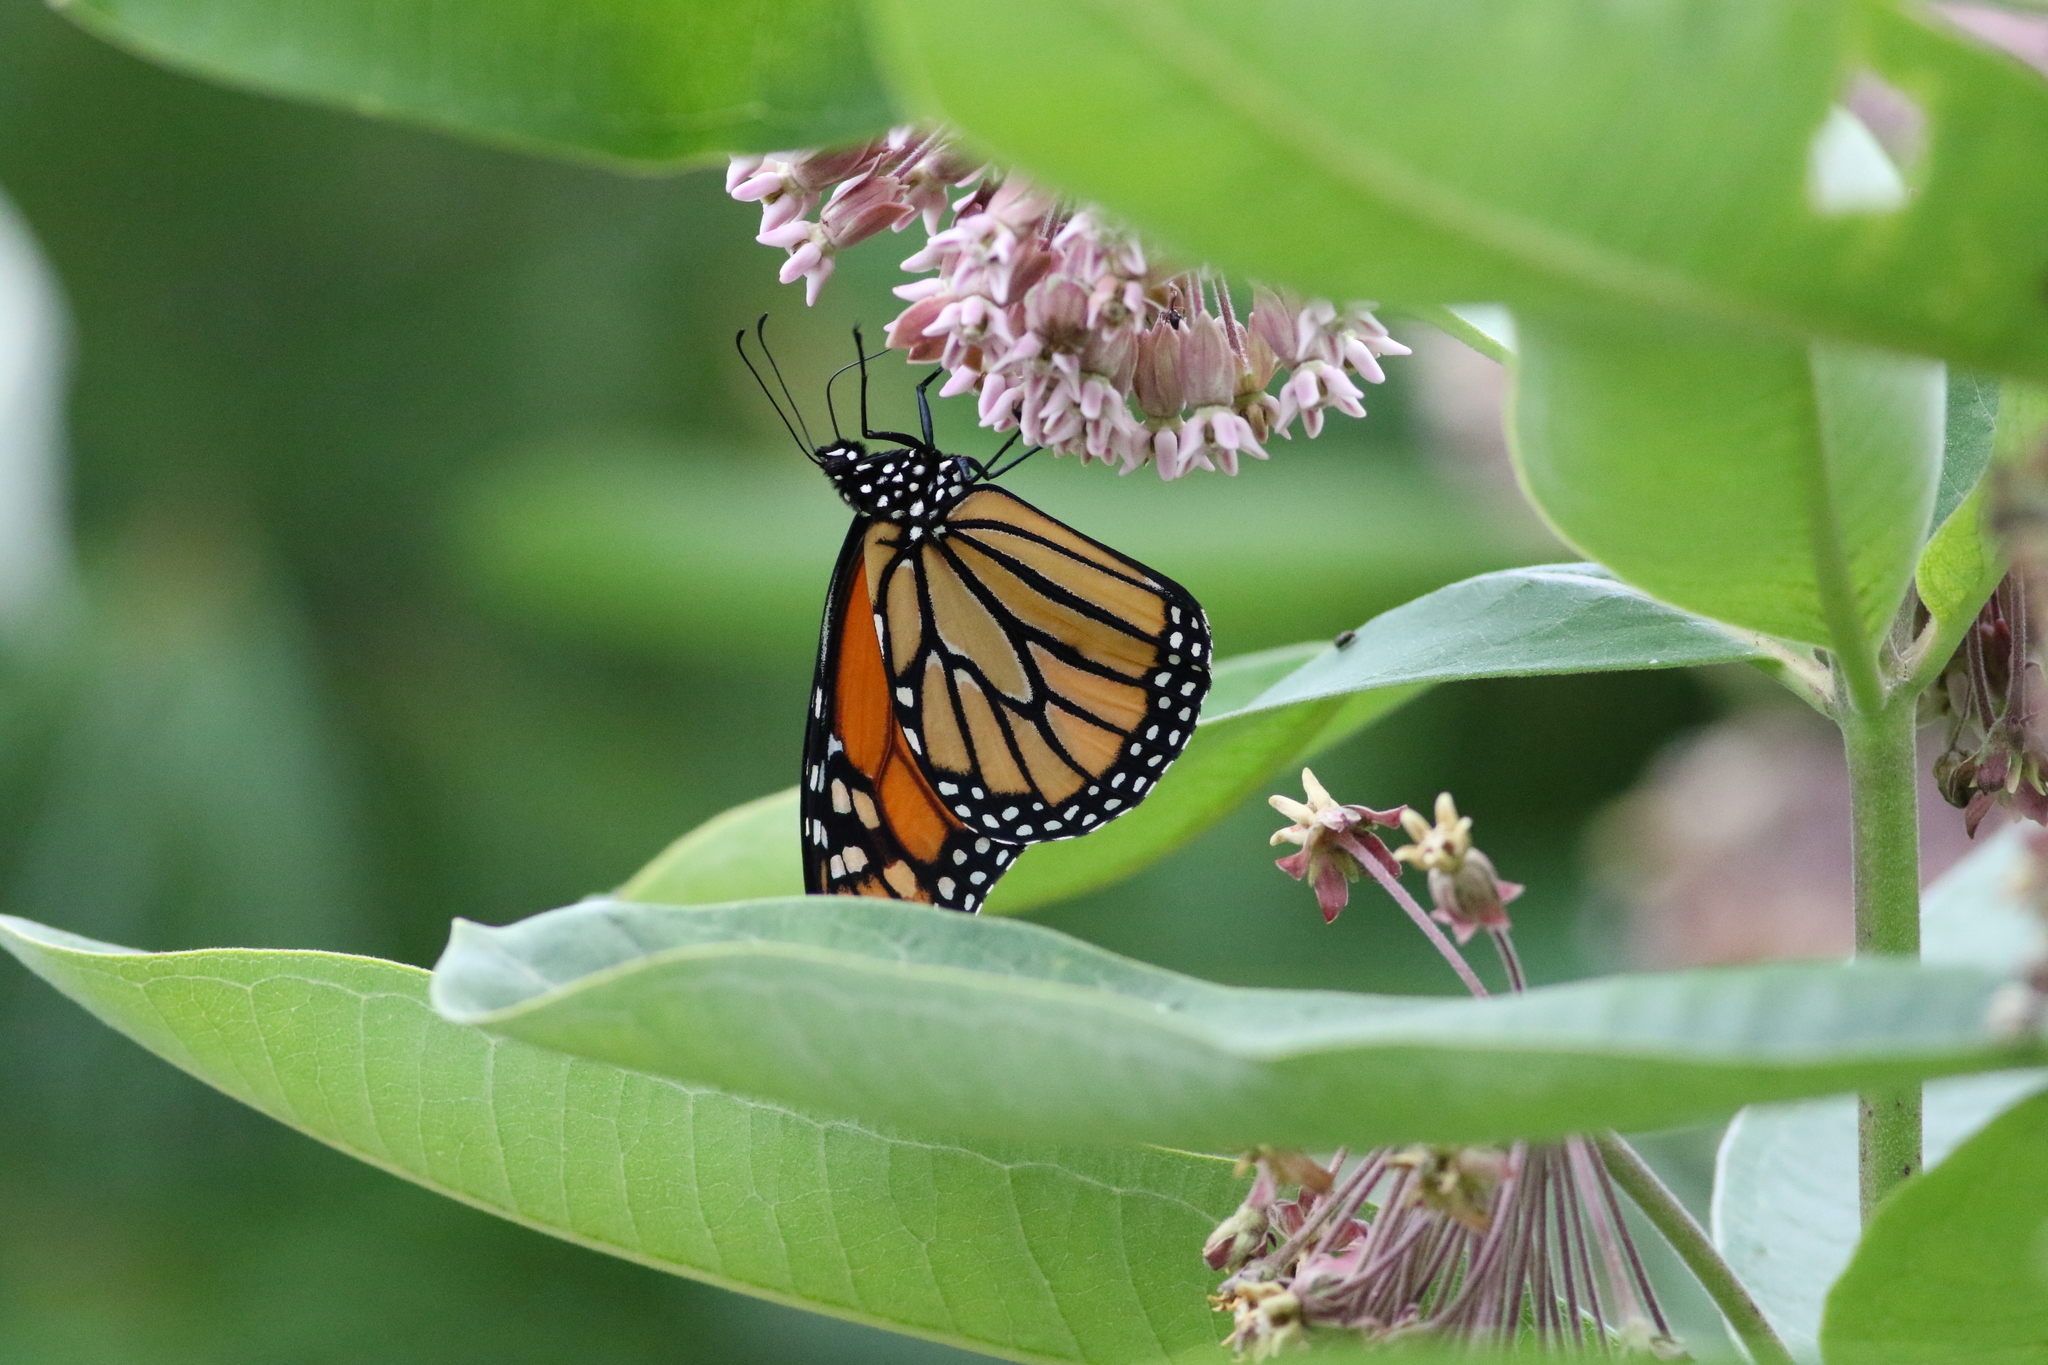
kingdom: Animalia
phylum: Arthropoda
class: Insecta
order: Lepidoptera
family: Nymphalidae
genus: Danaus
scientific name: Danaus plexippus
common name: Monarch
